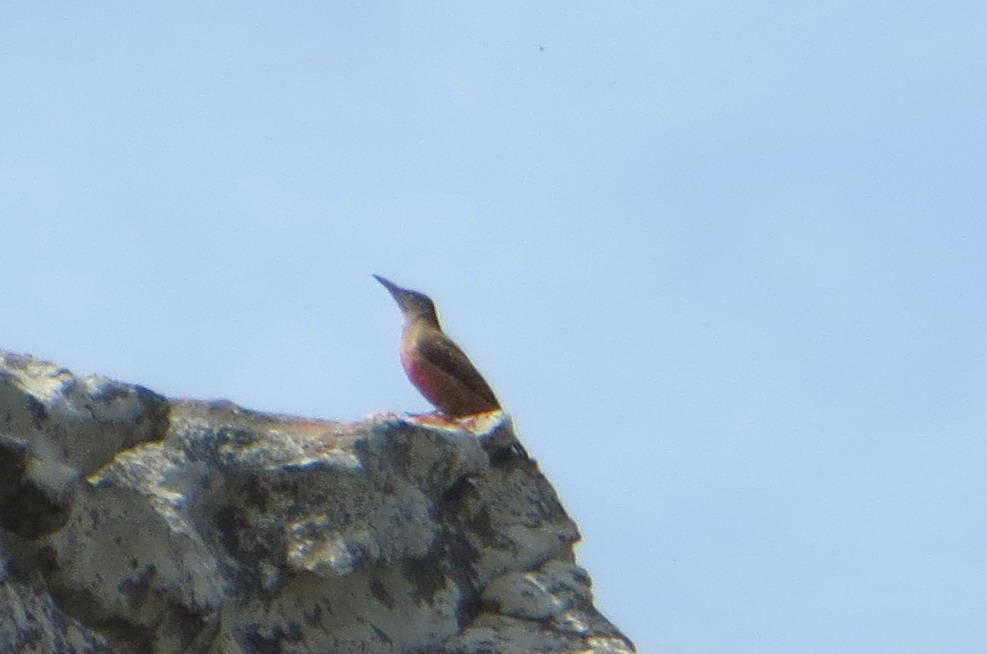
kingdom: Animalia
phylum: Chordata
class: Aves
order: Piciformes
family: Picidae
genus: Geocolaptes
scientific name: Geocolaptes olivaceus
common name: Ground woodpecker
